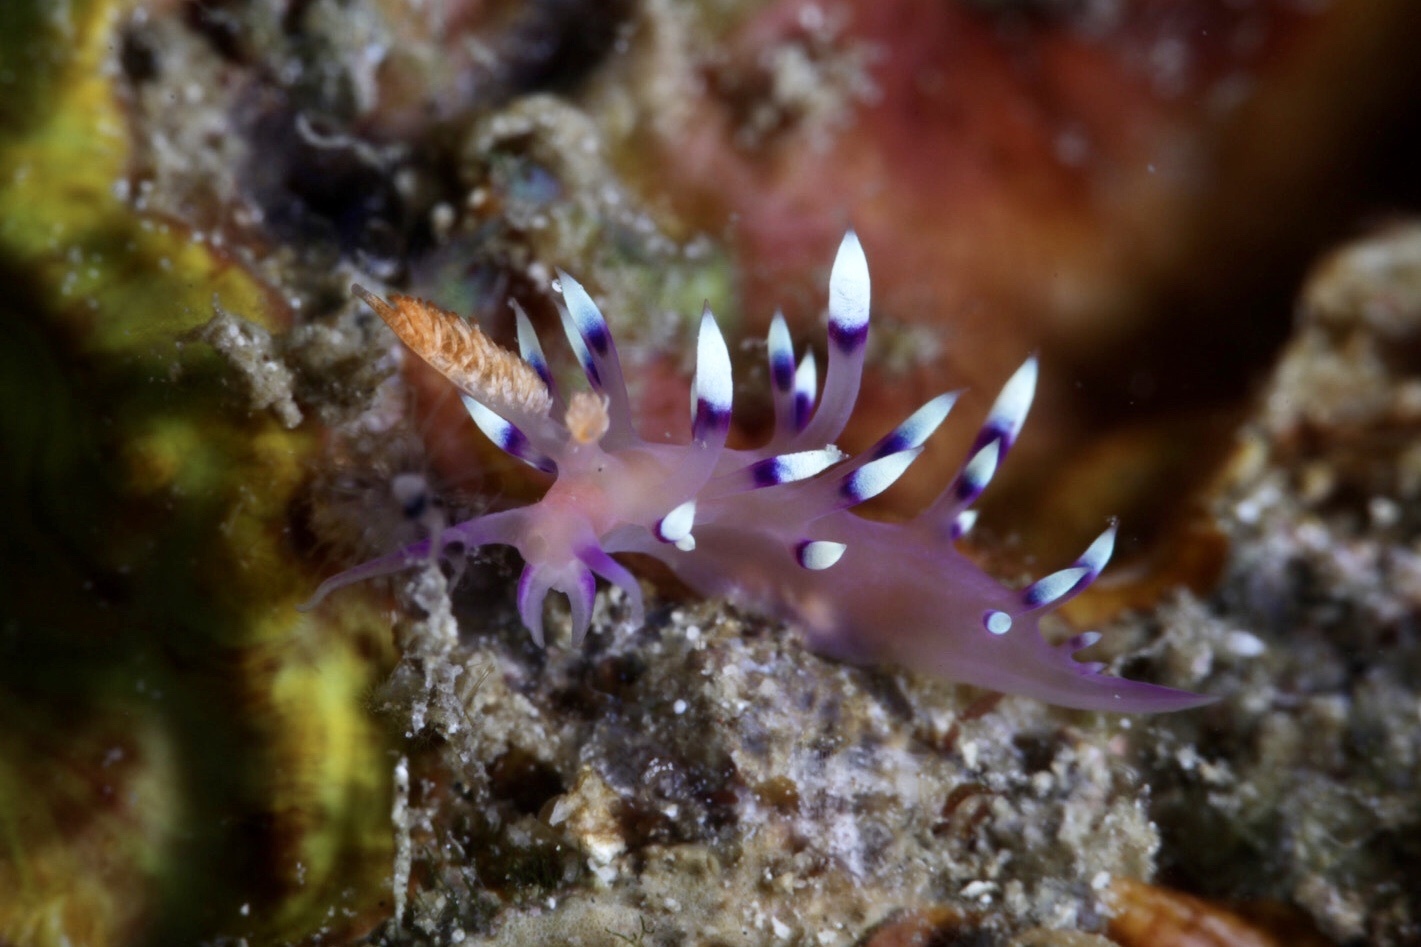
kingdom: Animalia
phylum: Mollusca
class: Gastropoda
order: Nudibranchia
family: Flabellinidae
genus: Coryphellina
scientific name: Coryphellina exoptata
